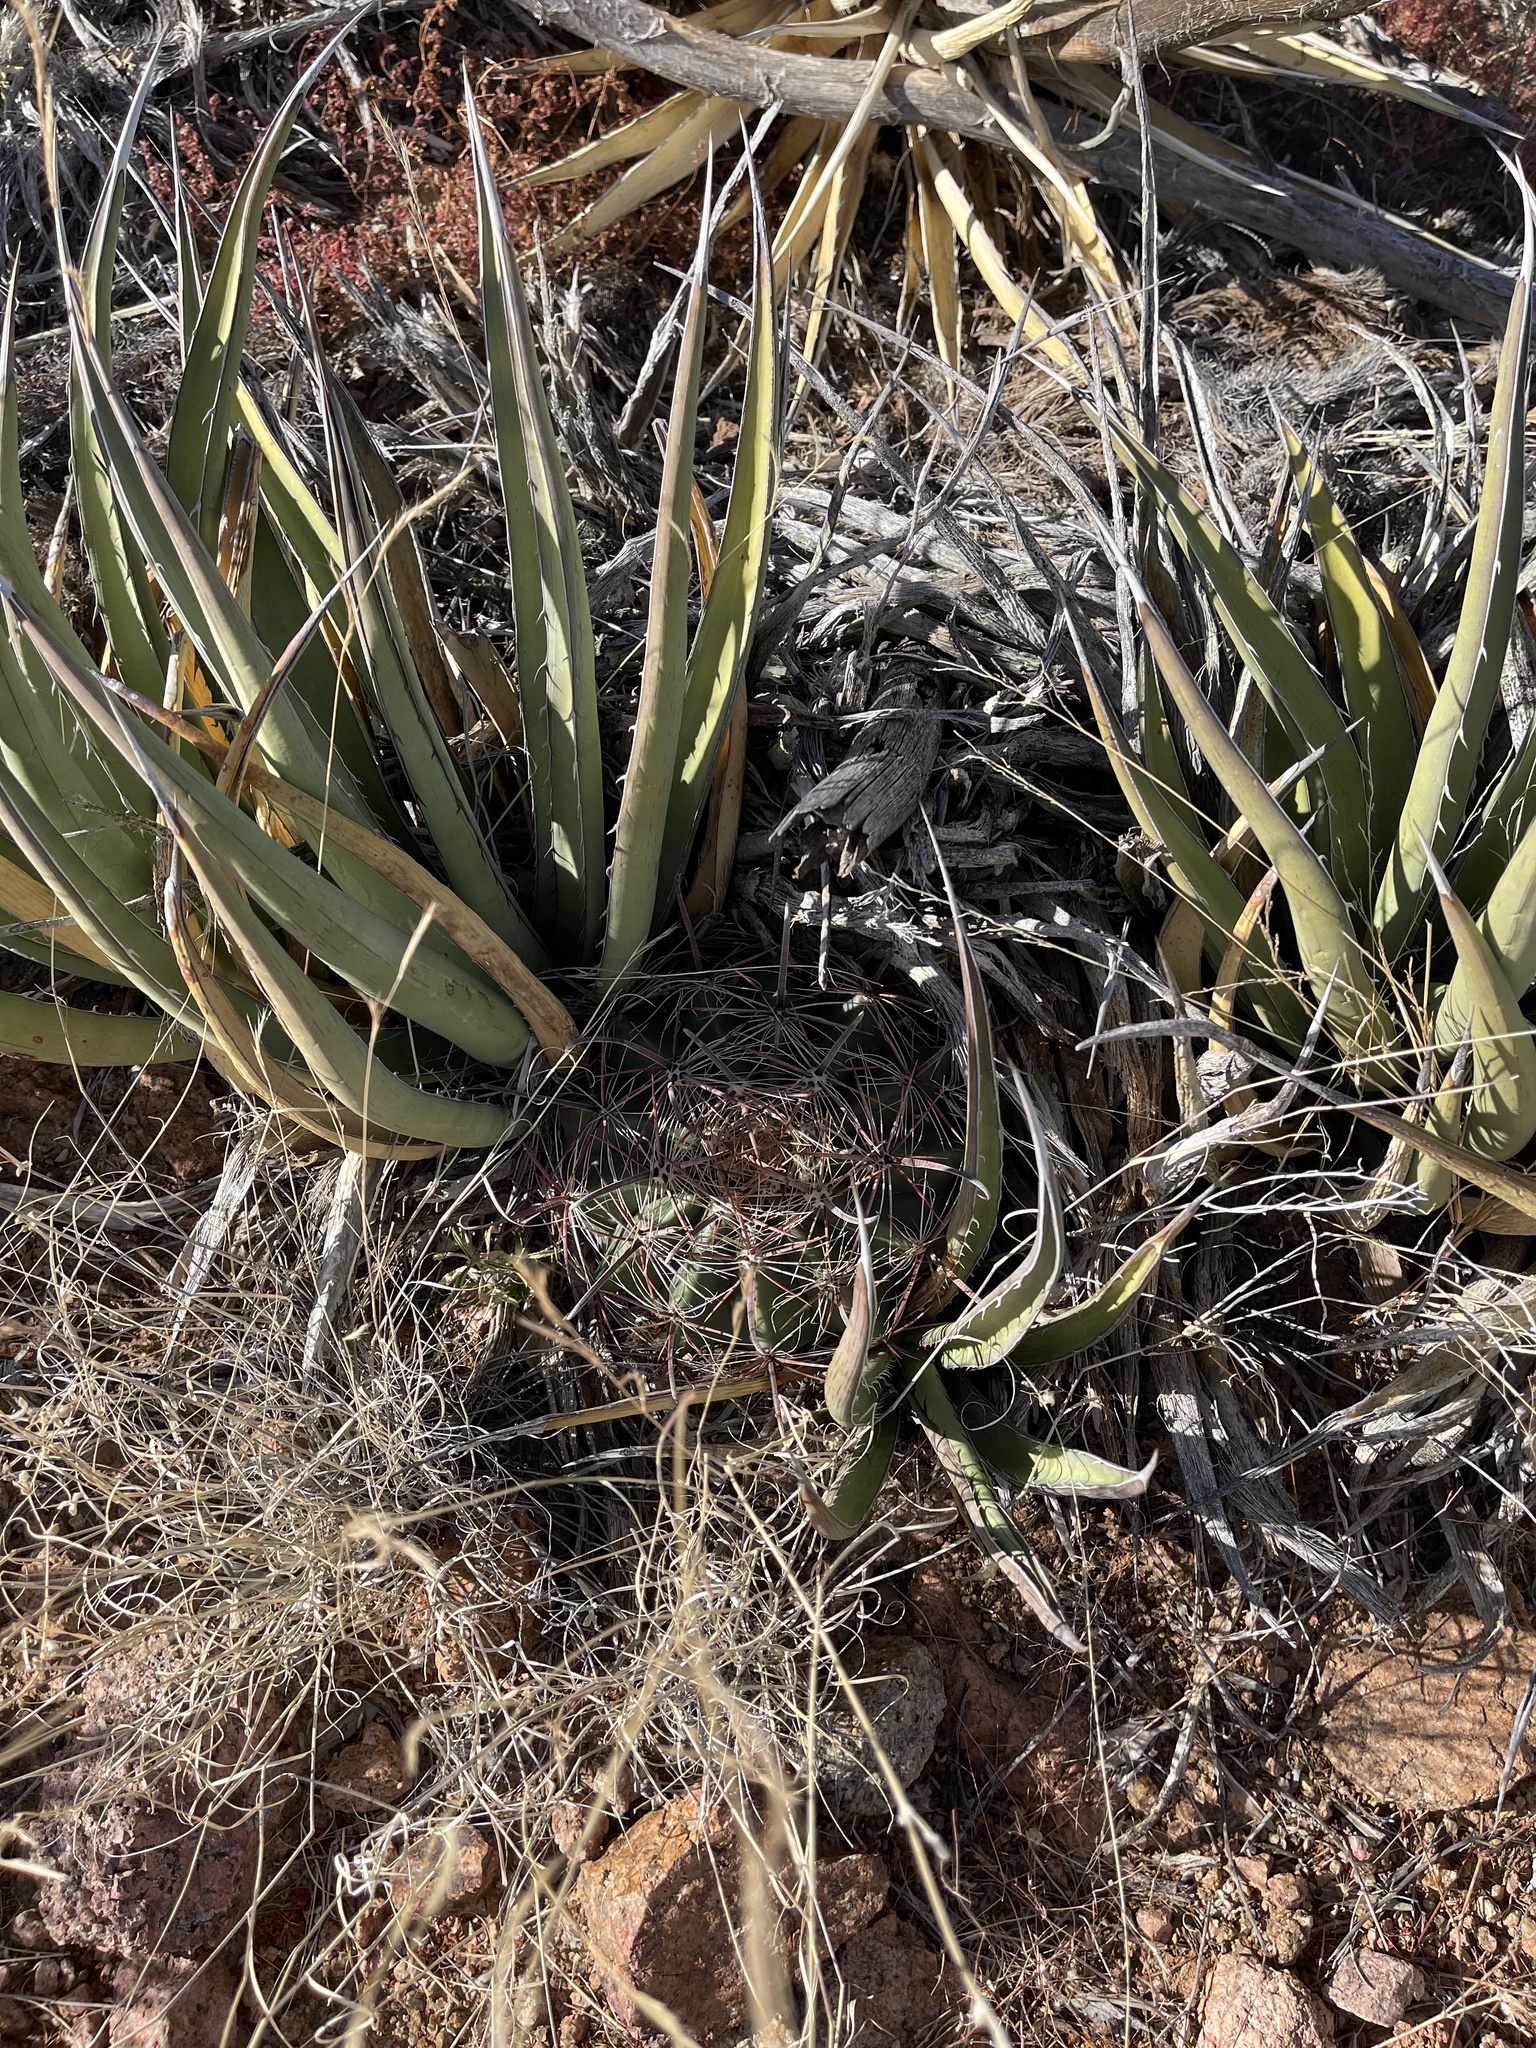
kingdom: Plantae
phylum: Tracheophyta
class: Magnoliopsida
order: Caryophyllales
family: Cactaceae
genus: Ferocactus
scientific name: Ferocactus wislizeni
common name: Candy barrel cactus
